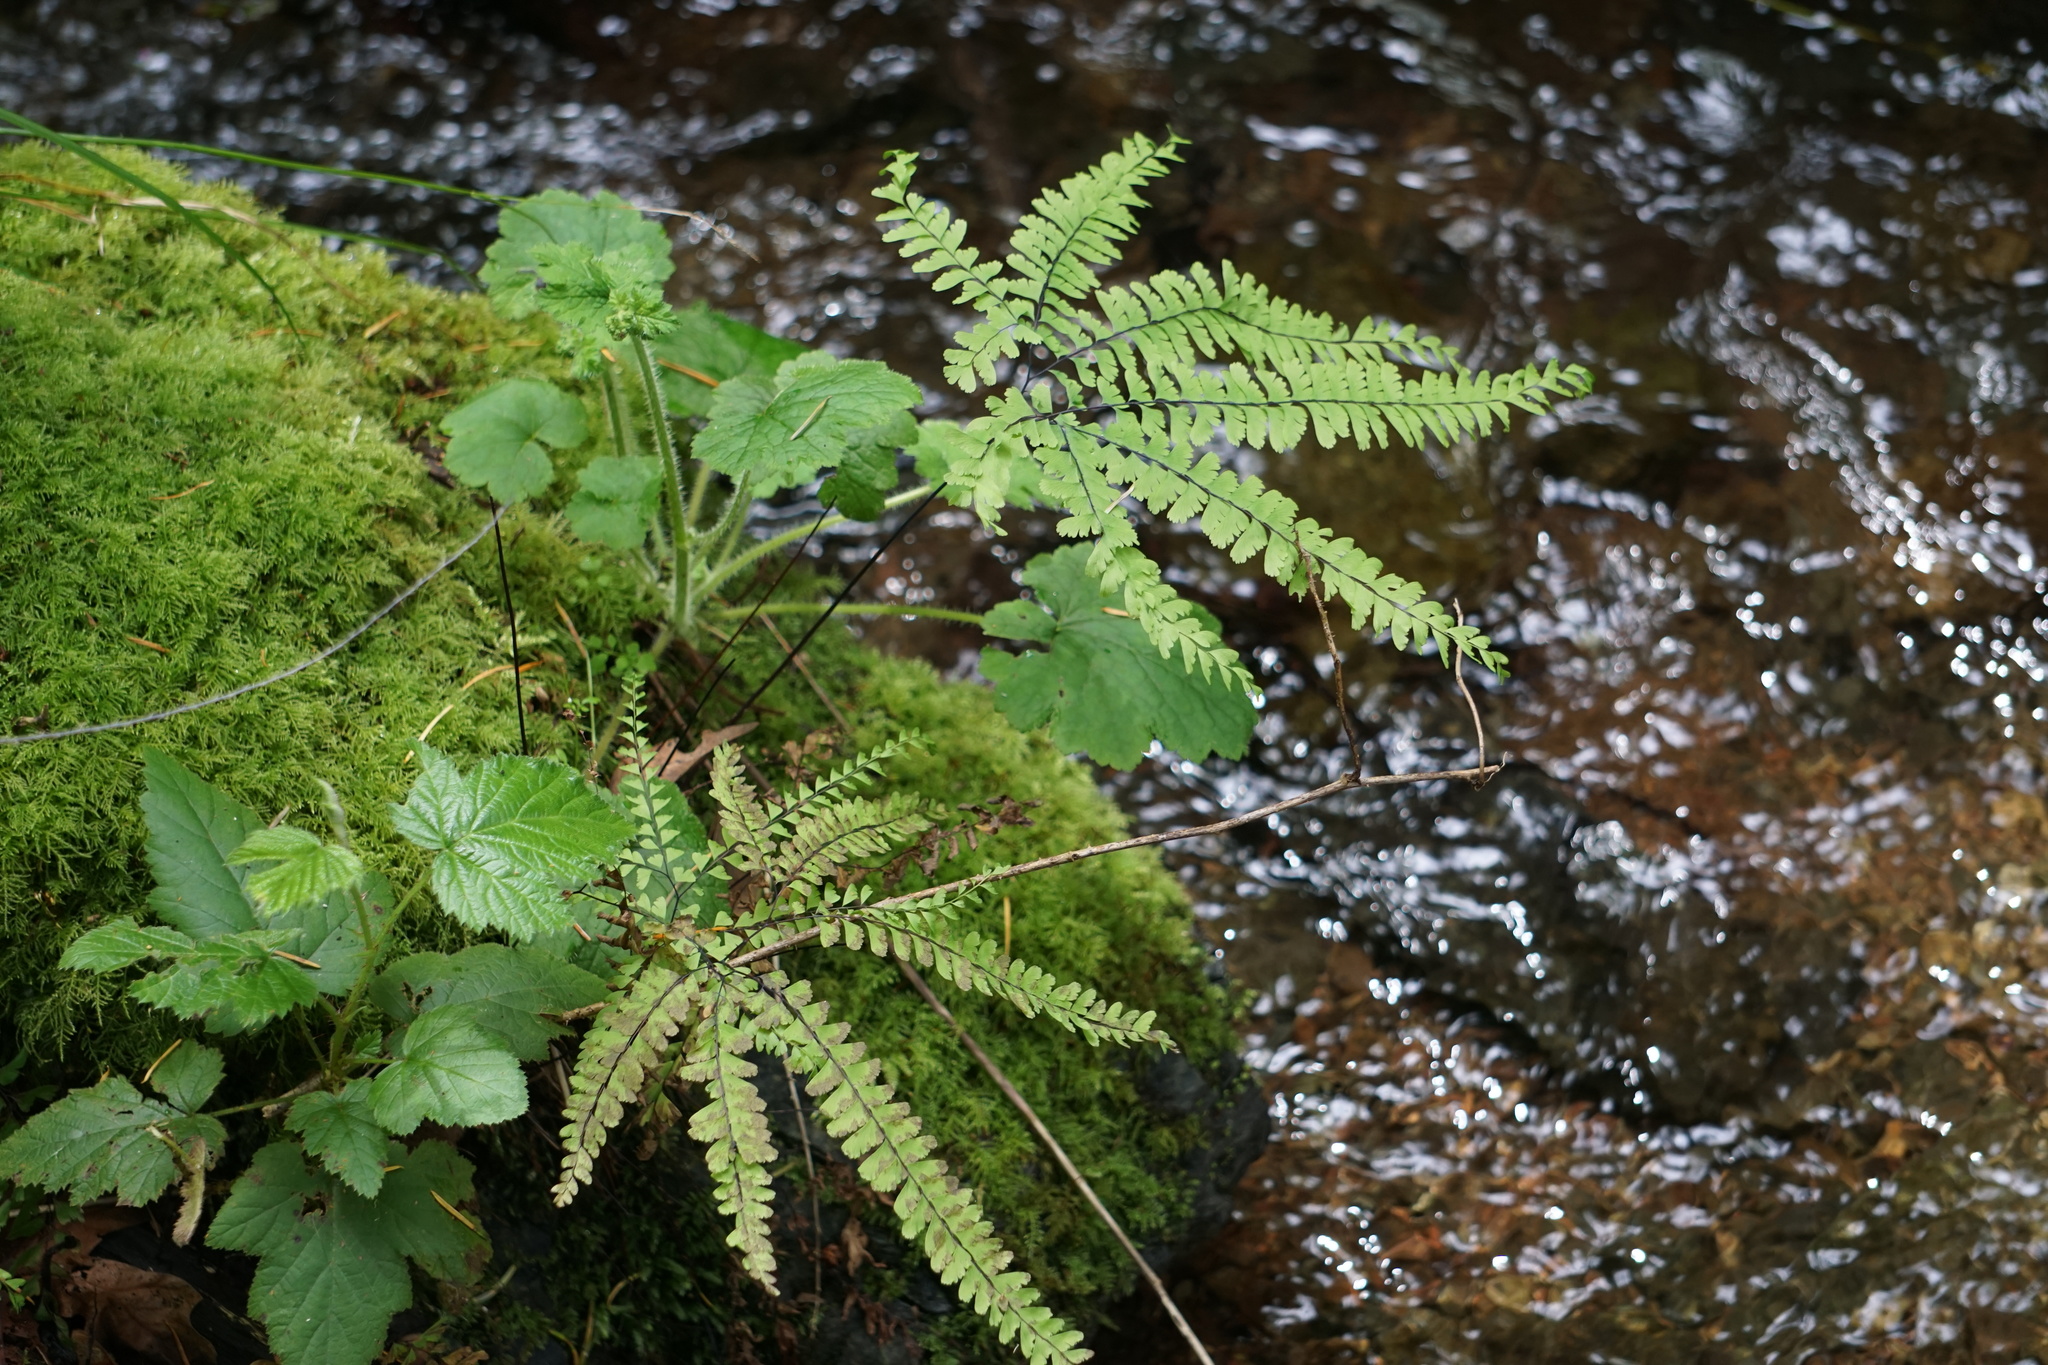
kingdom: Plantae
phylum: Tracheophyta
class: Polypodiopsida
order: Polypodiales
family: Pteridaceae
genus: Adiantum
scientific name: Adiantum aleuticum
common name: Aleutian maidenhair fern
